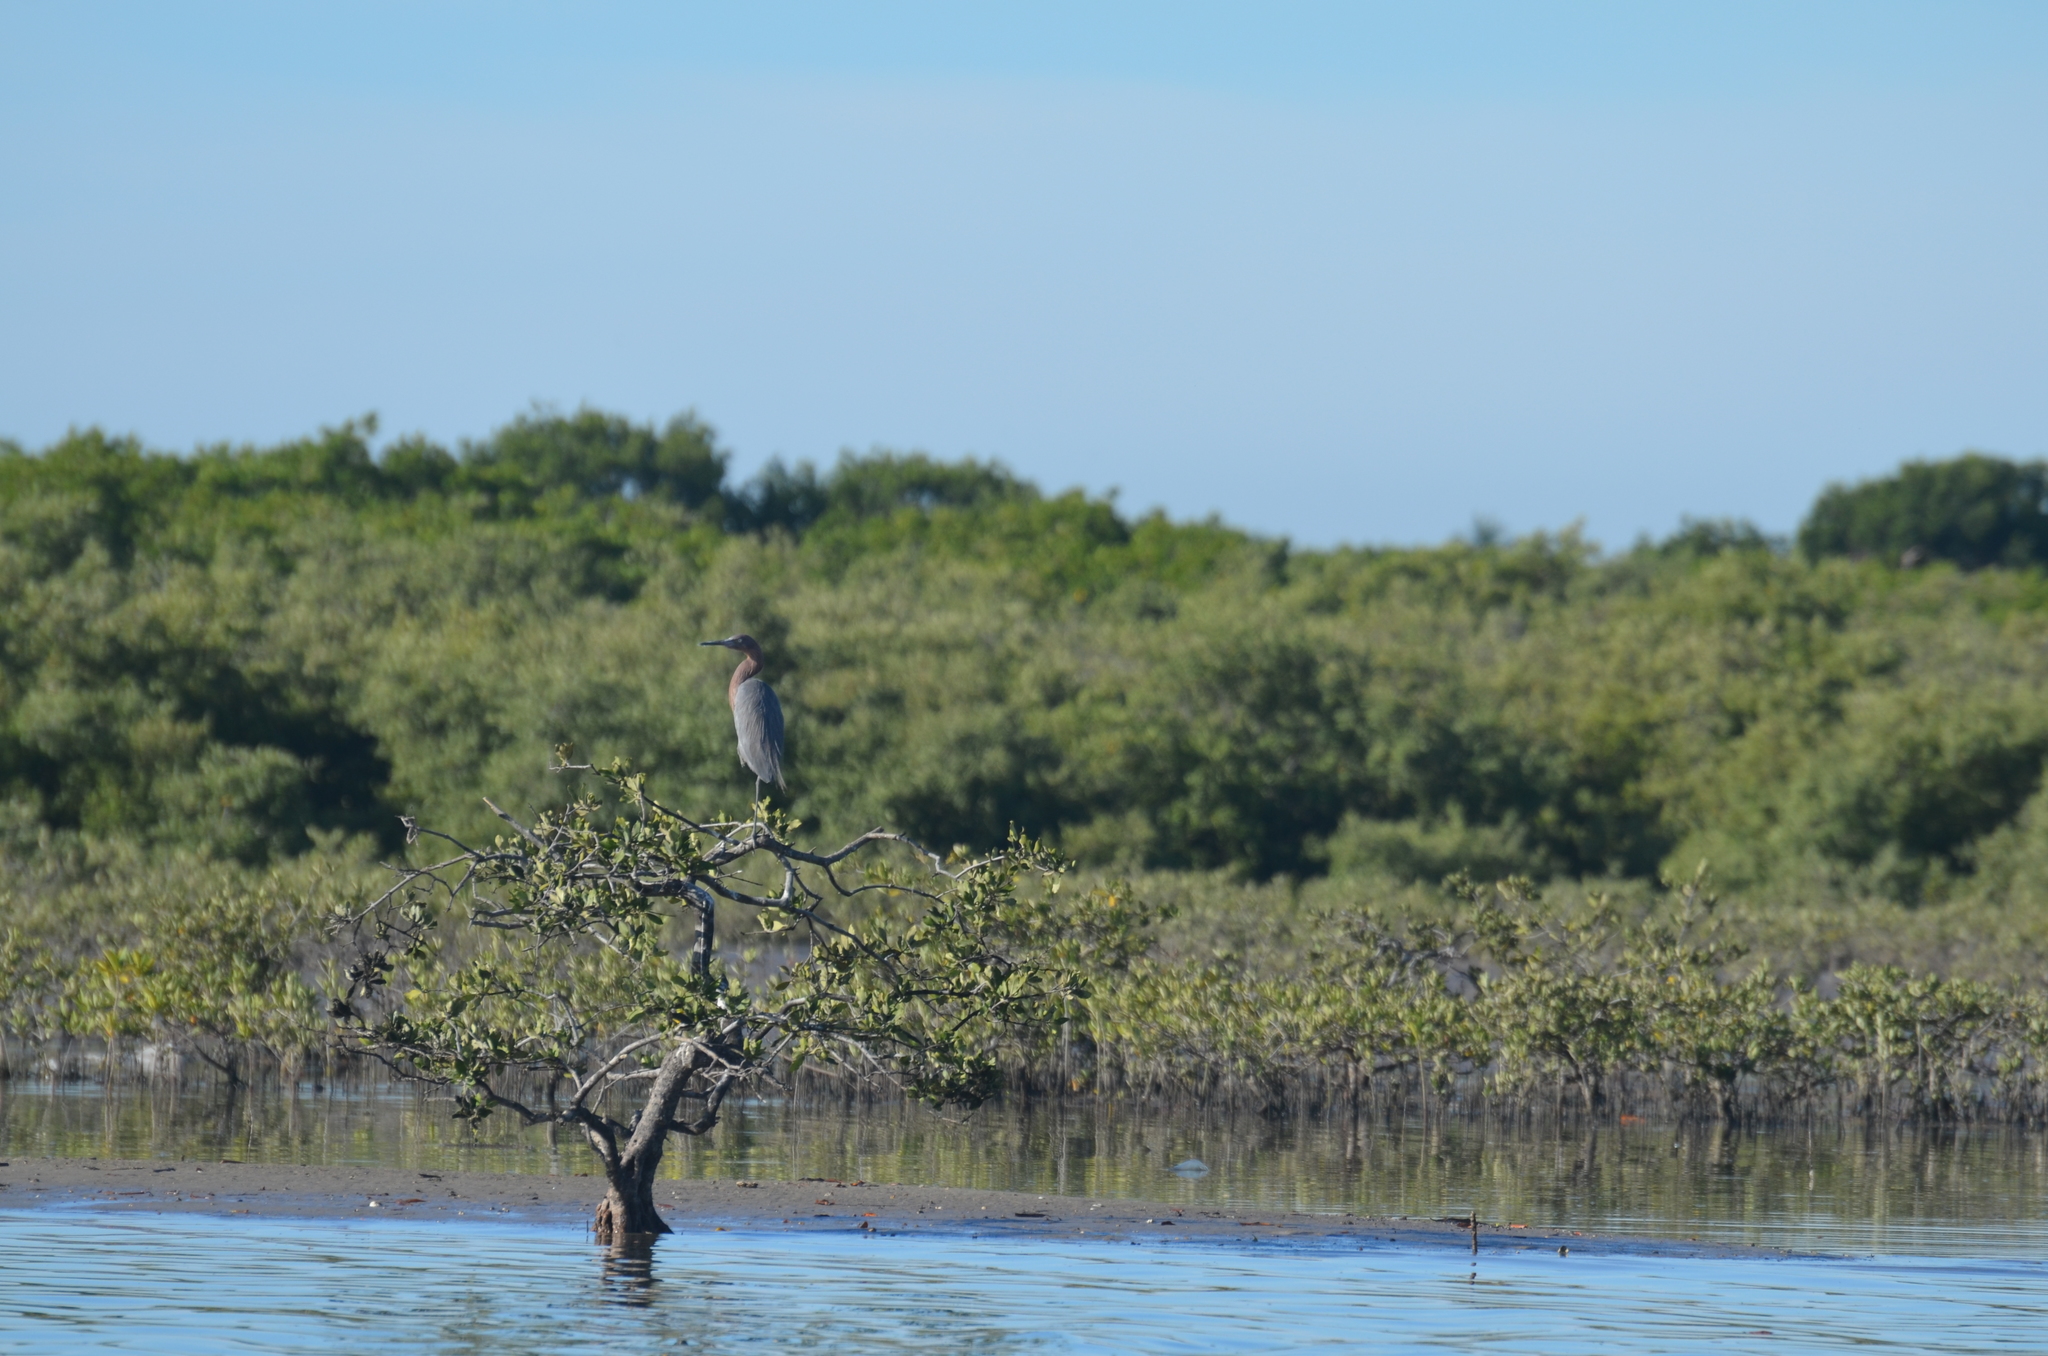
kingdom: Animalia
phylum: Chordata
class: Aves
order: Pelecaniformes
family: Ardeidae
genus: Egretta
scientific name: Egretta rufescens
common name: Reddish egret
